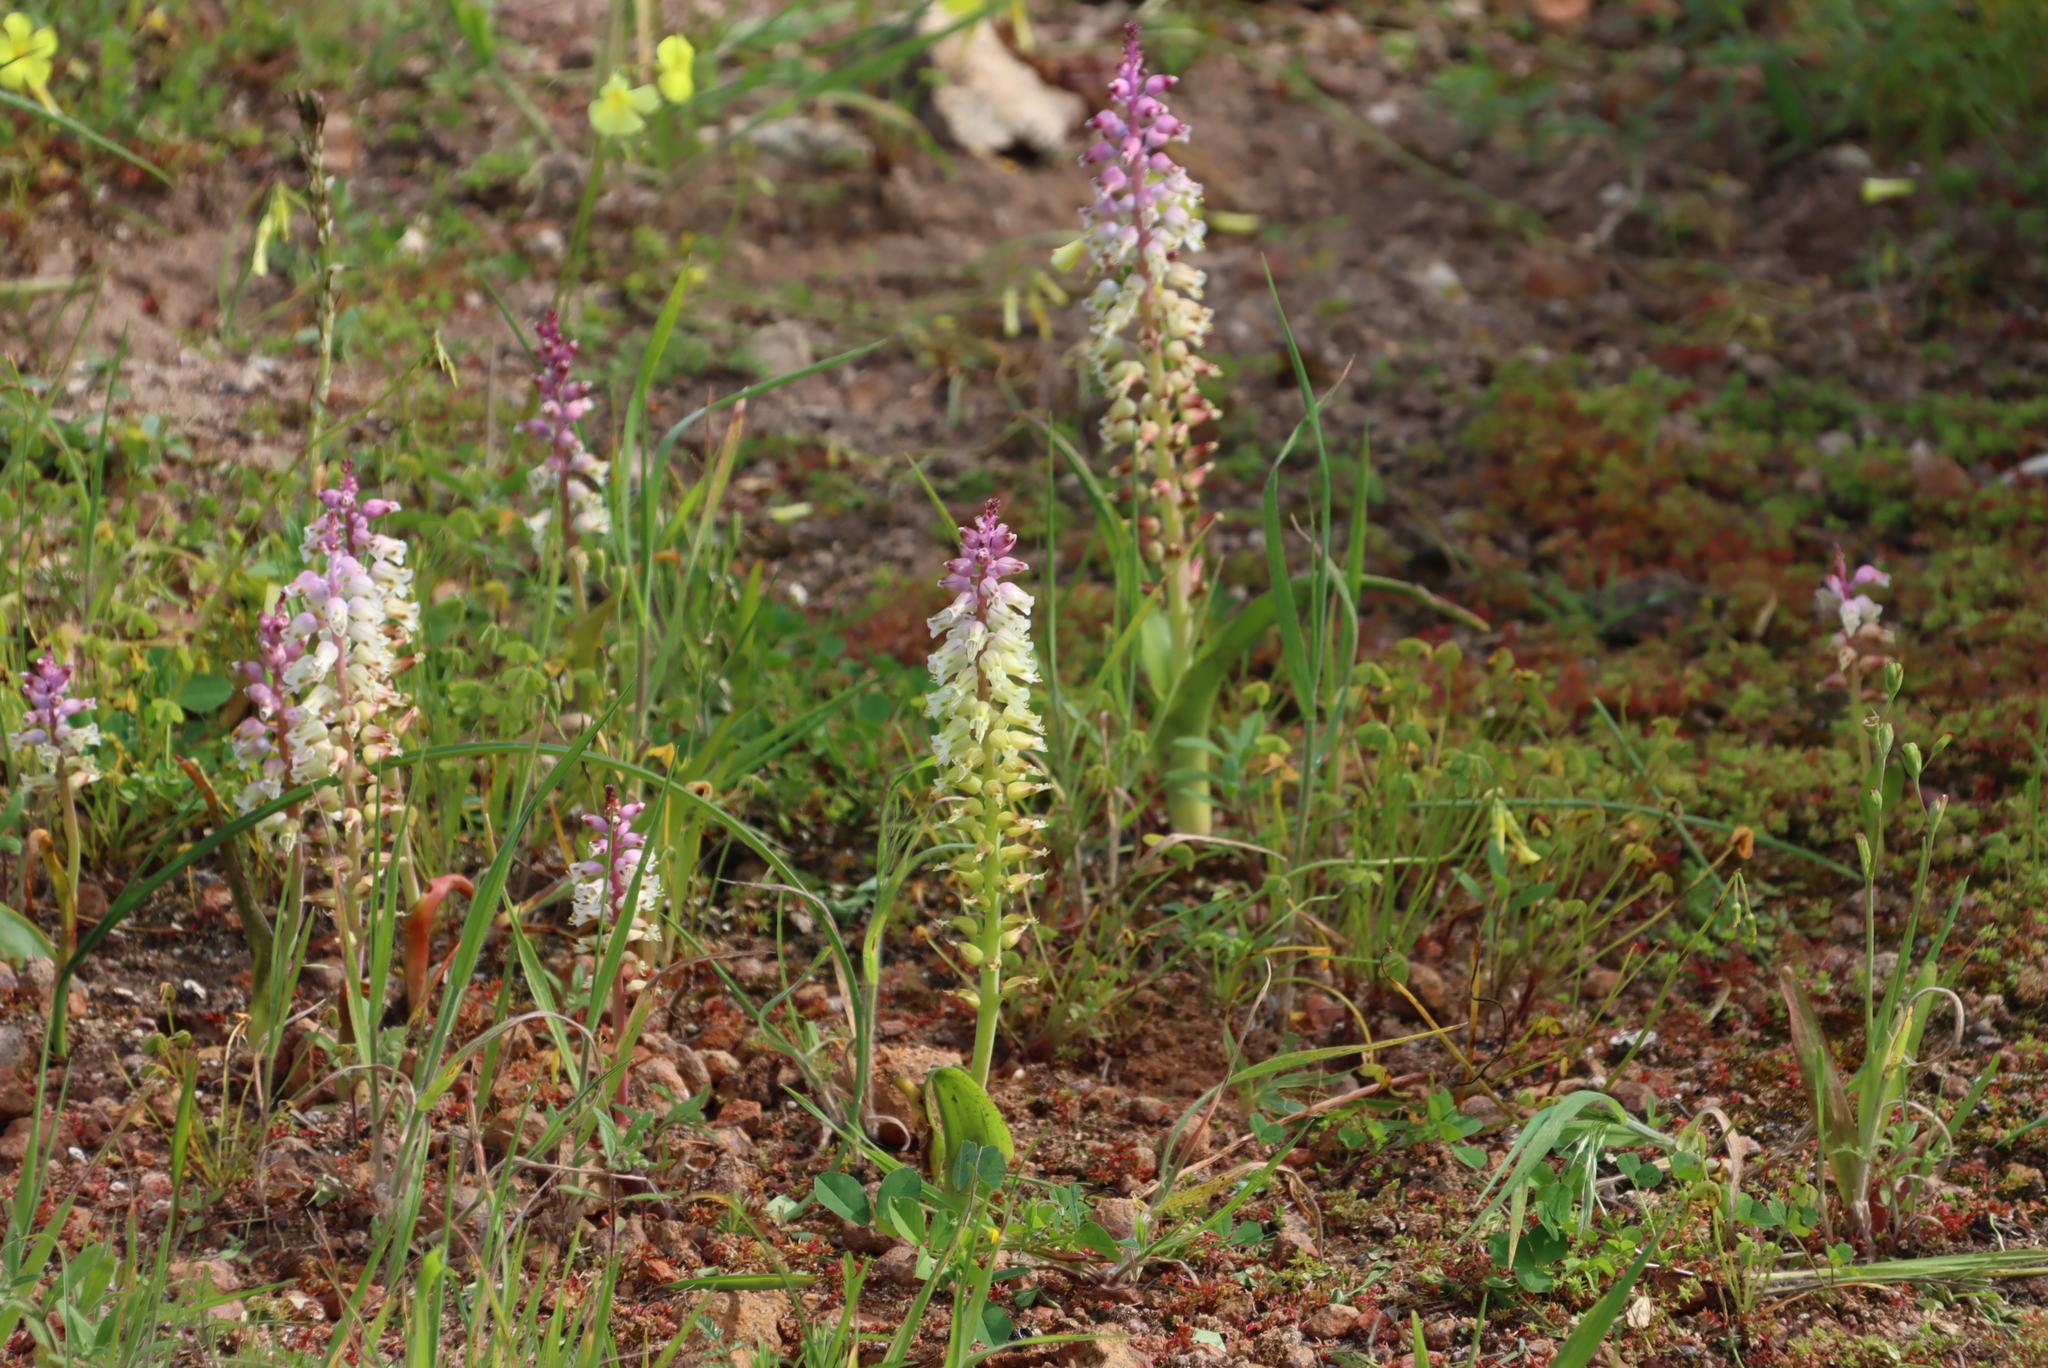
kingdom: Plantae
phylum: Tracheophyta
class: Liliopsida
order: Asparagales
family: Asparagaceae
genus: Lachenalia
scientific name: Lachenalia pallida
